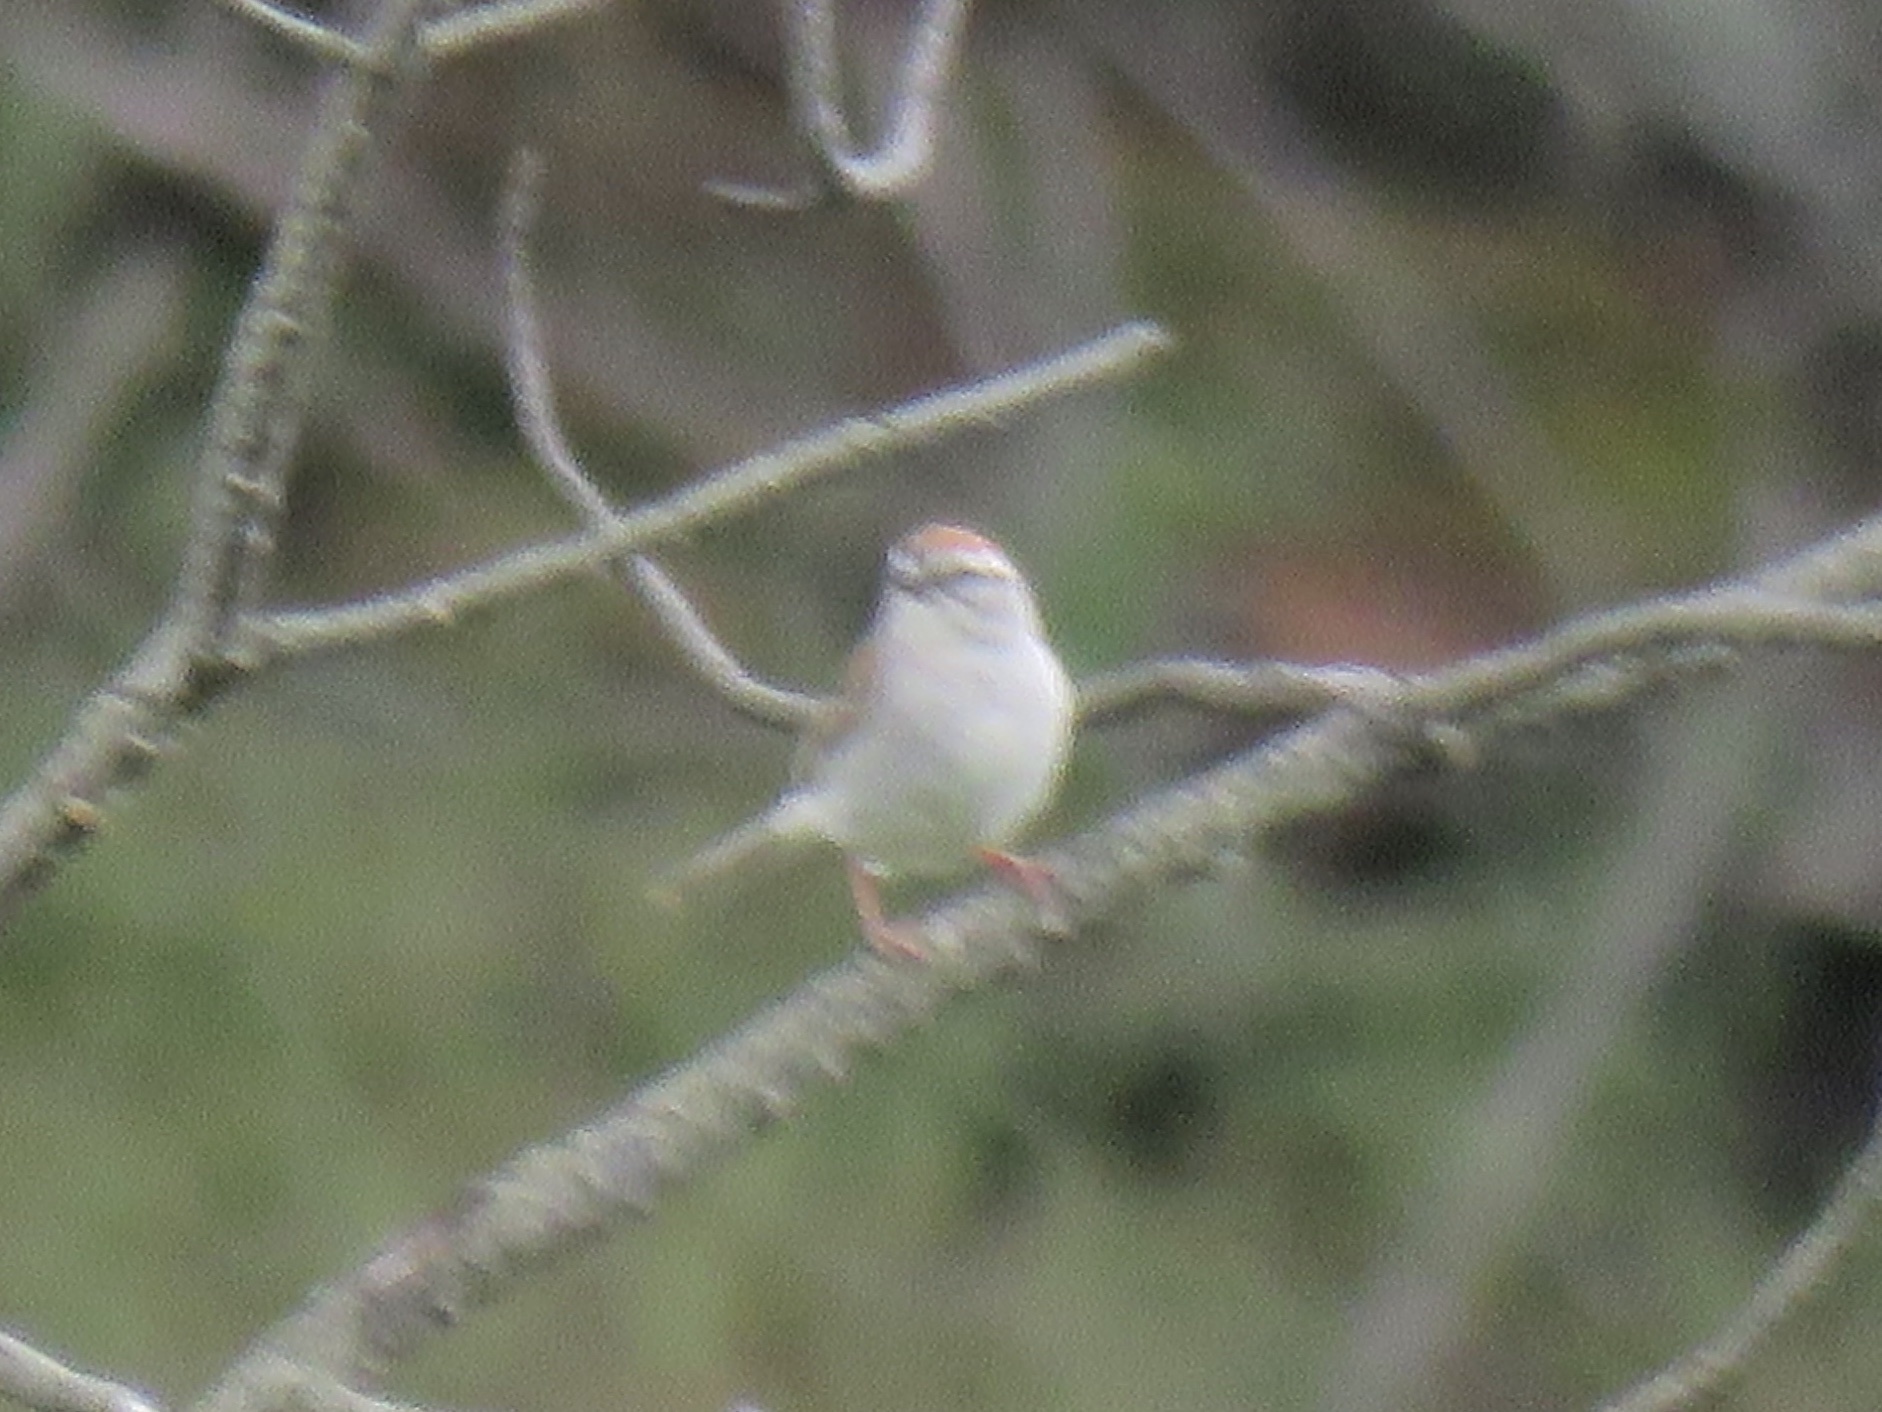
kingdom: Animalia
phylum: Chordata
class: Aves
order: Passeriformes
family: Passerellidae
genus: Spizella
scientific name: Spizella passerina
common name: Chipping sparrow
